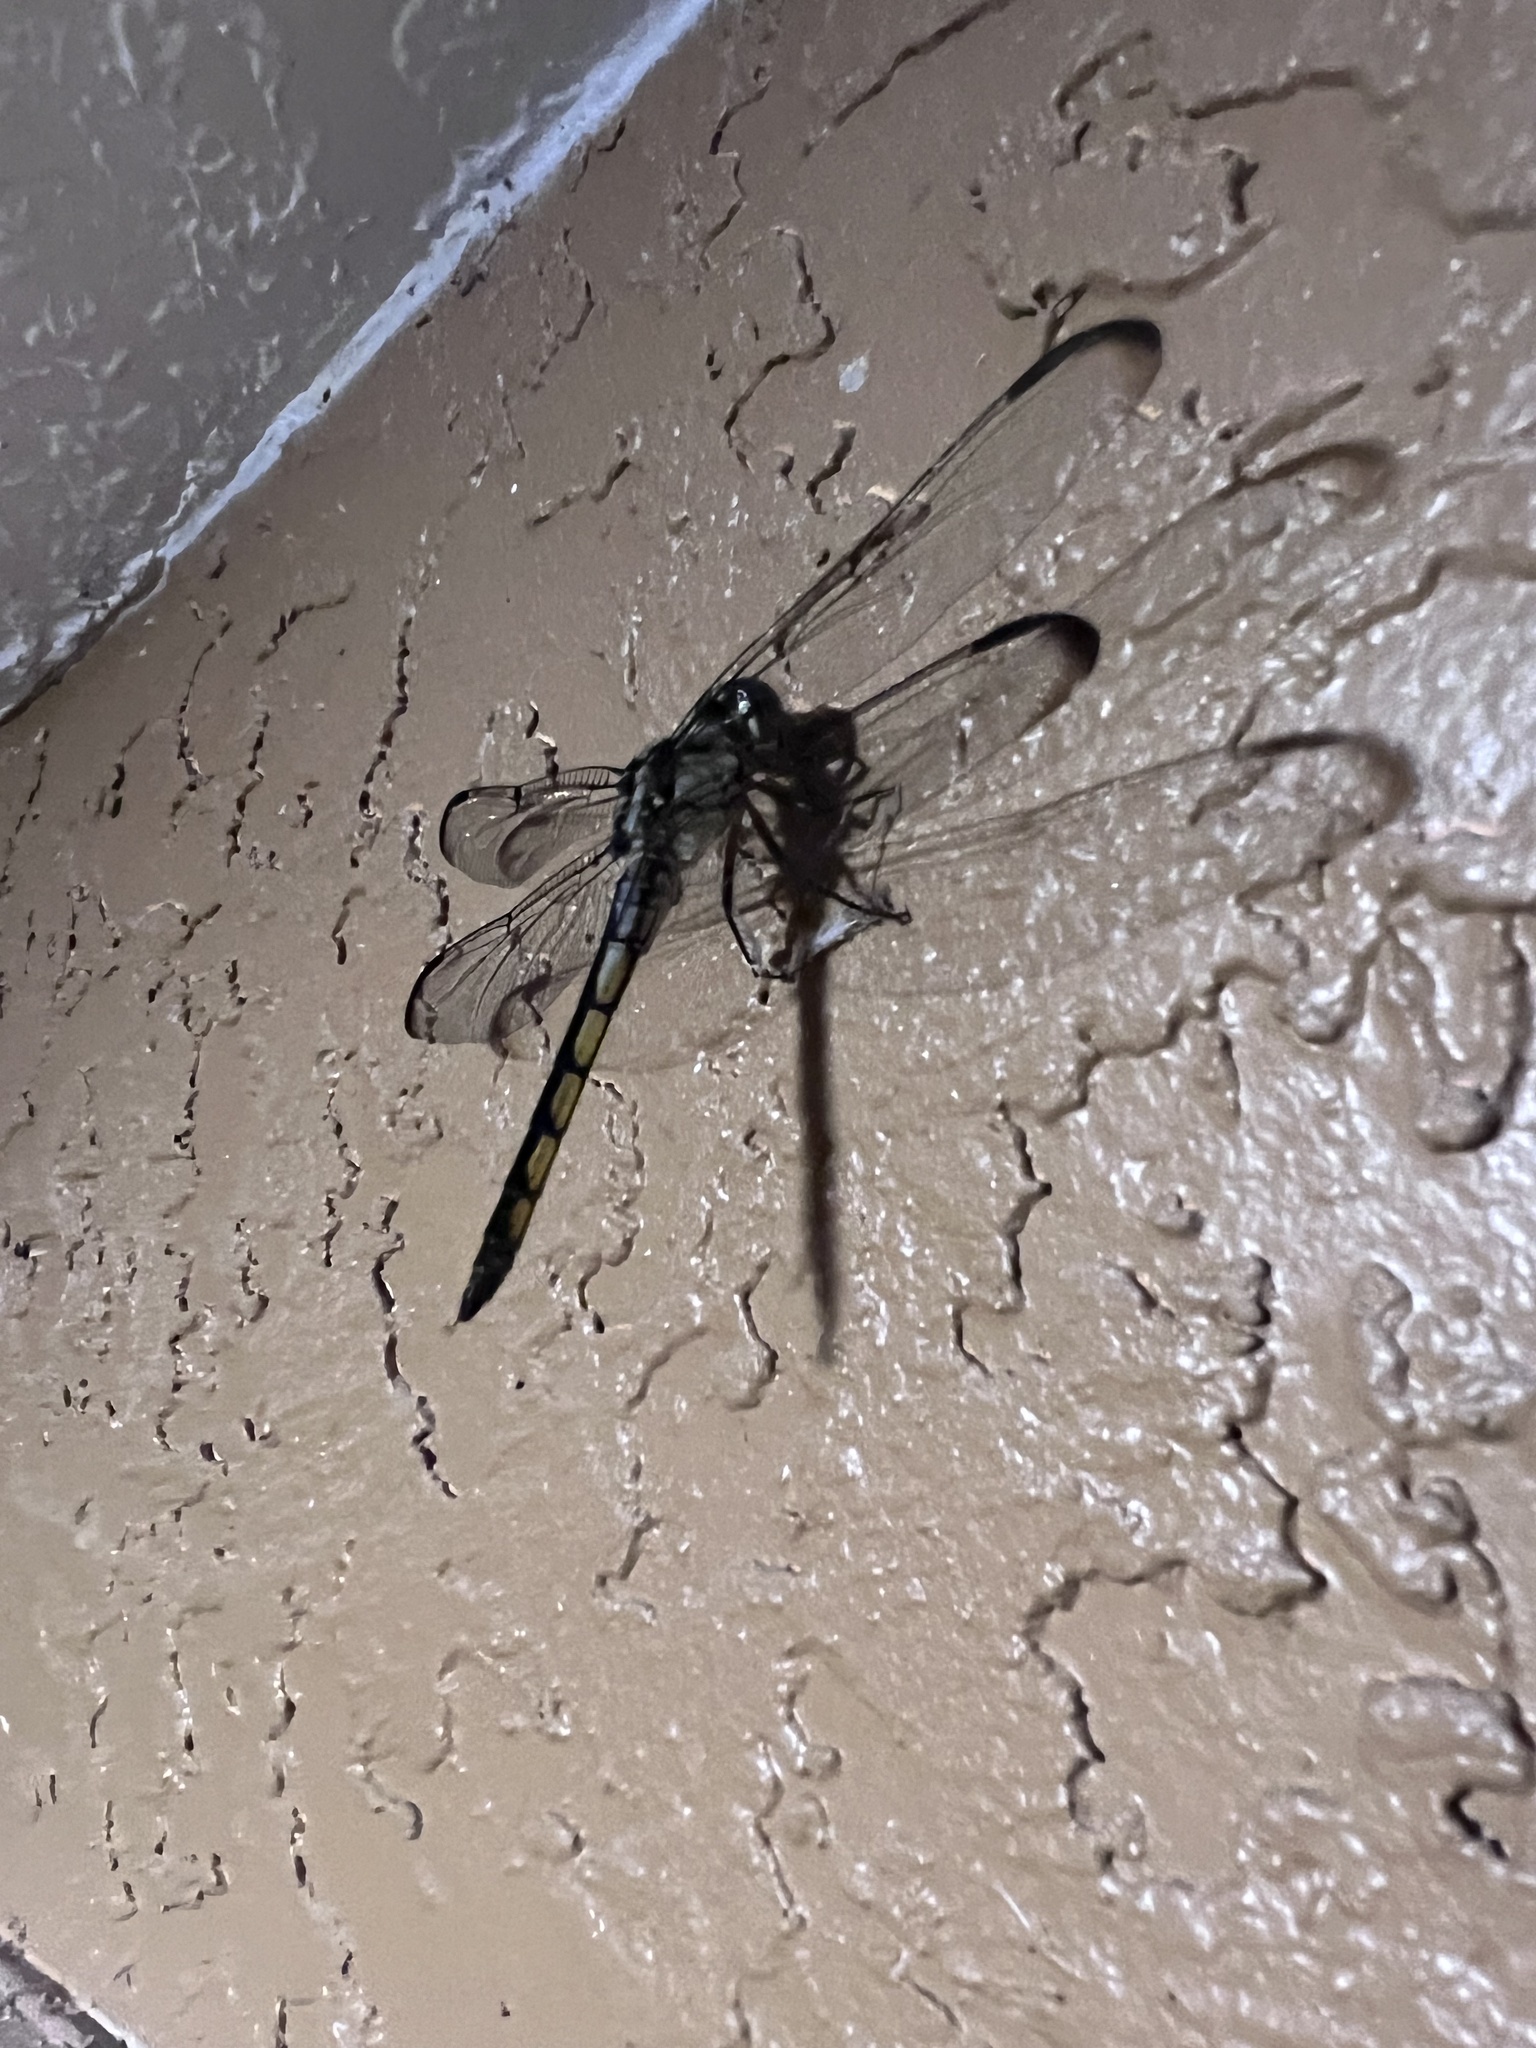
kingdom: Animalia
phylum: Arthropoda
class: Insecta
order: Odonata
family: Libellulidae
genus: Libellula
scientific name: Libellula vibrans
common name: Great blue skimmer
